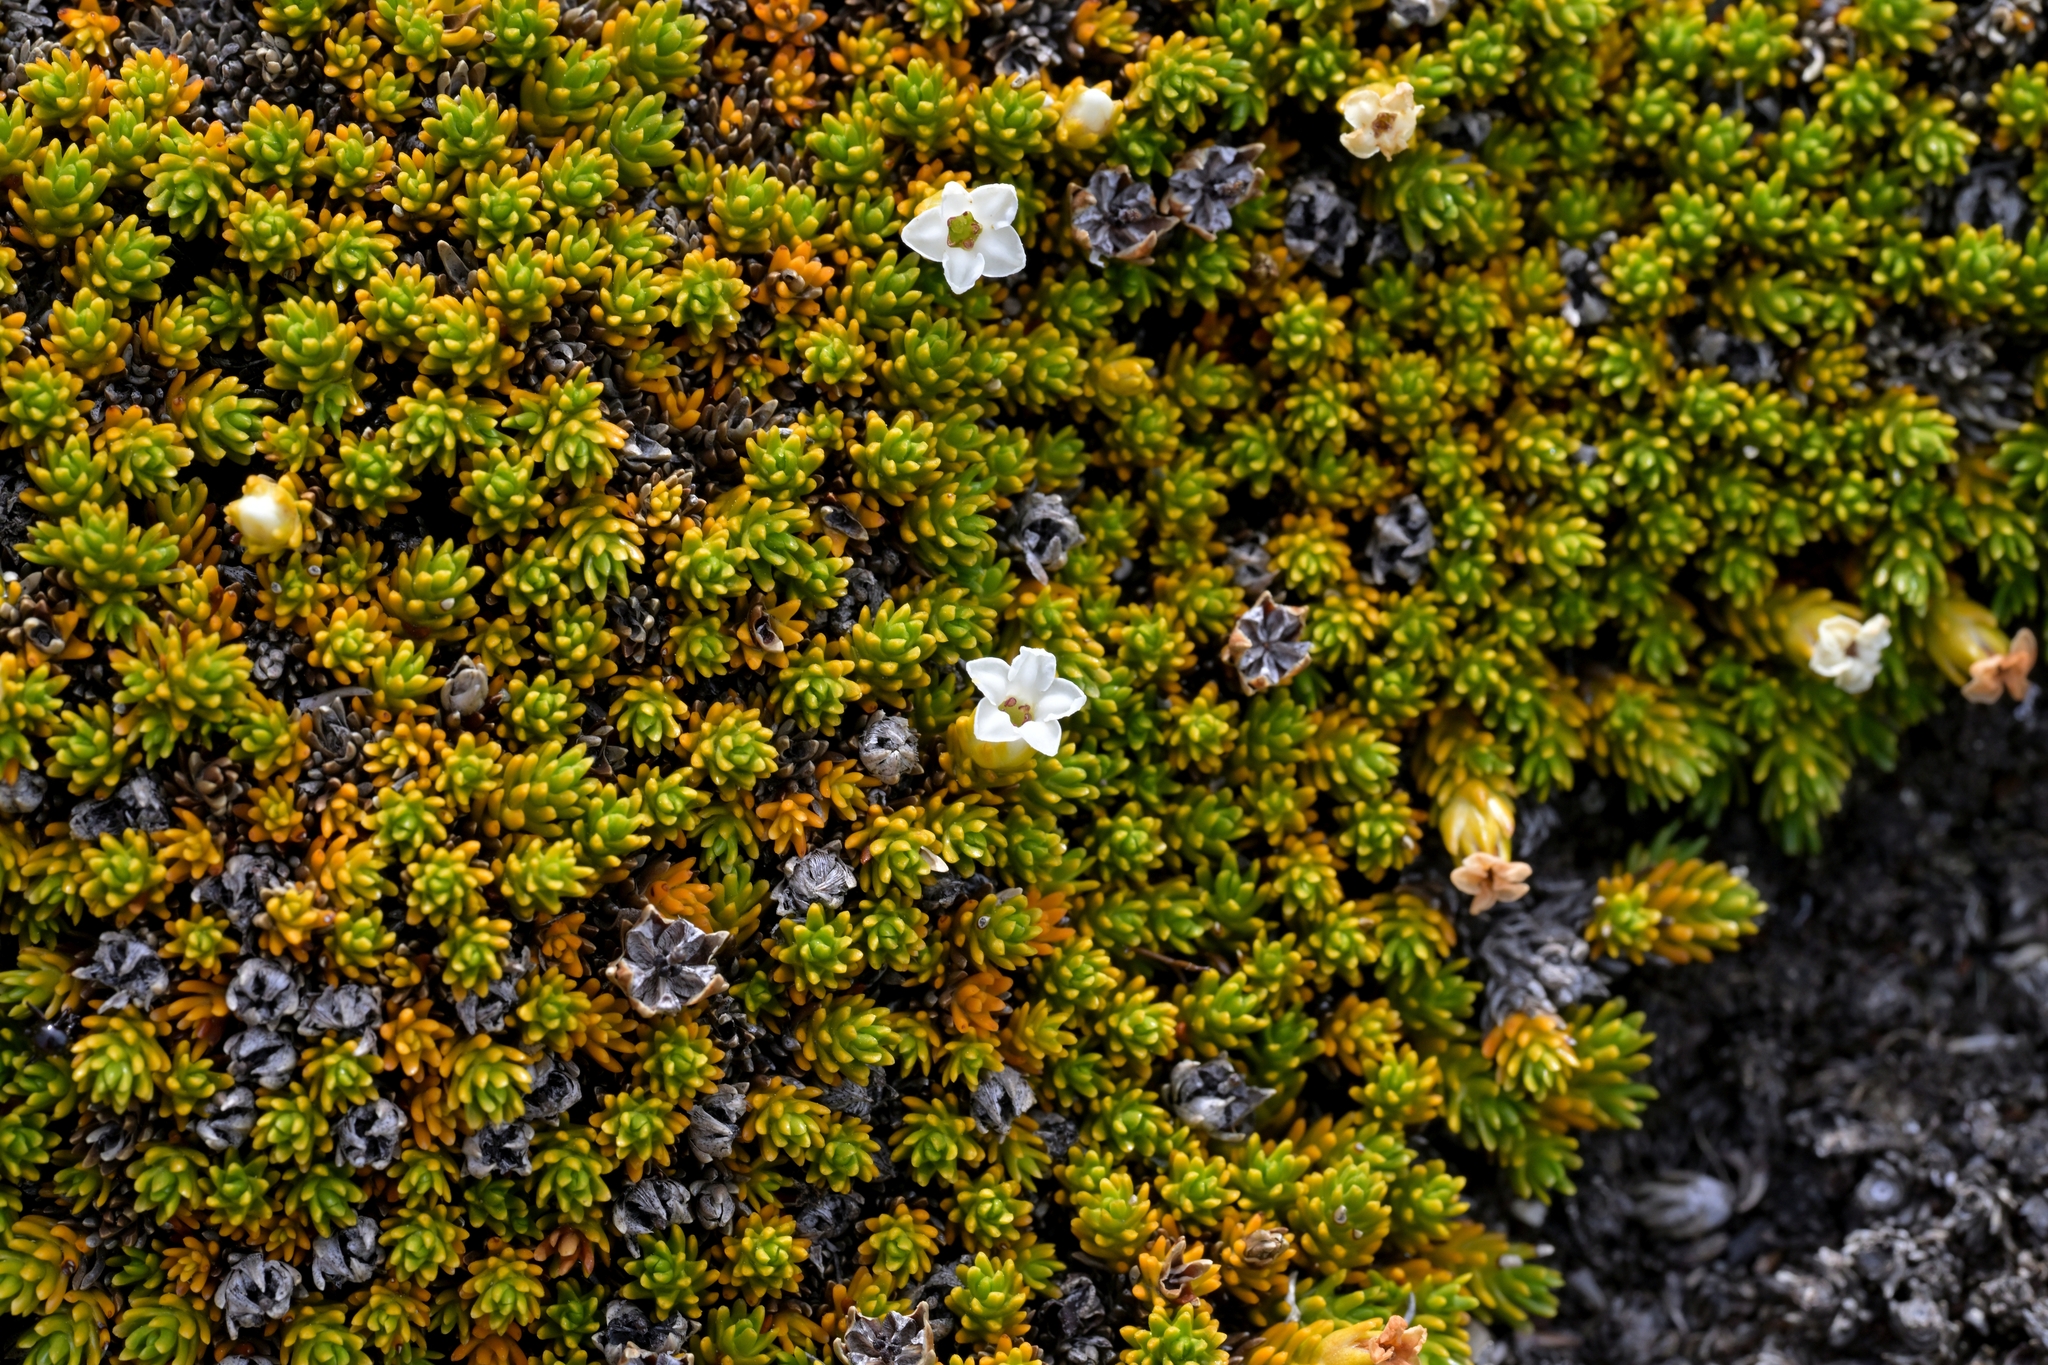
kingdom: Plantae
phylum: Tracheophyta
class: Magnoliopsida
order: Ericales
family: Ericaceae
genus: Dracophyllum
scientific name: Dracophyllum muscoides
